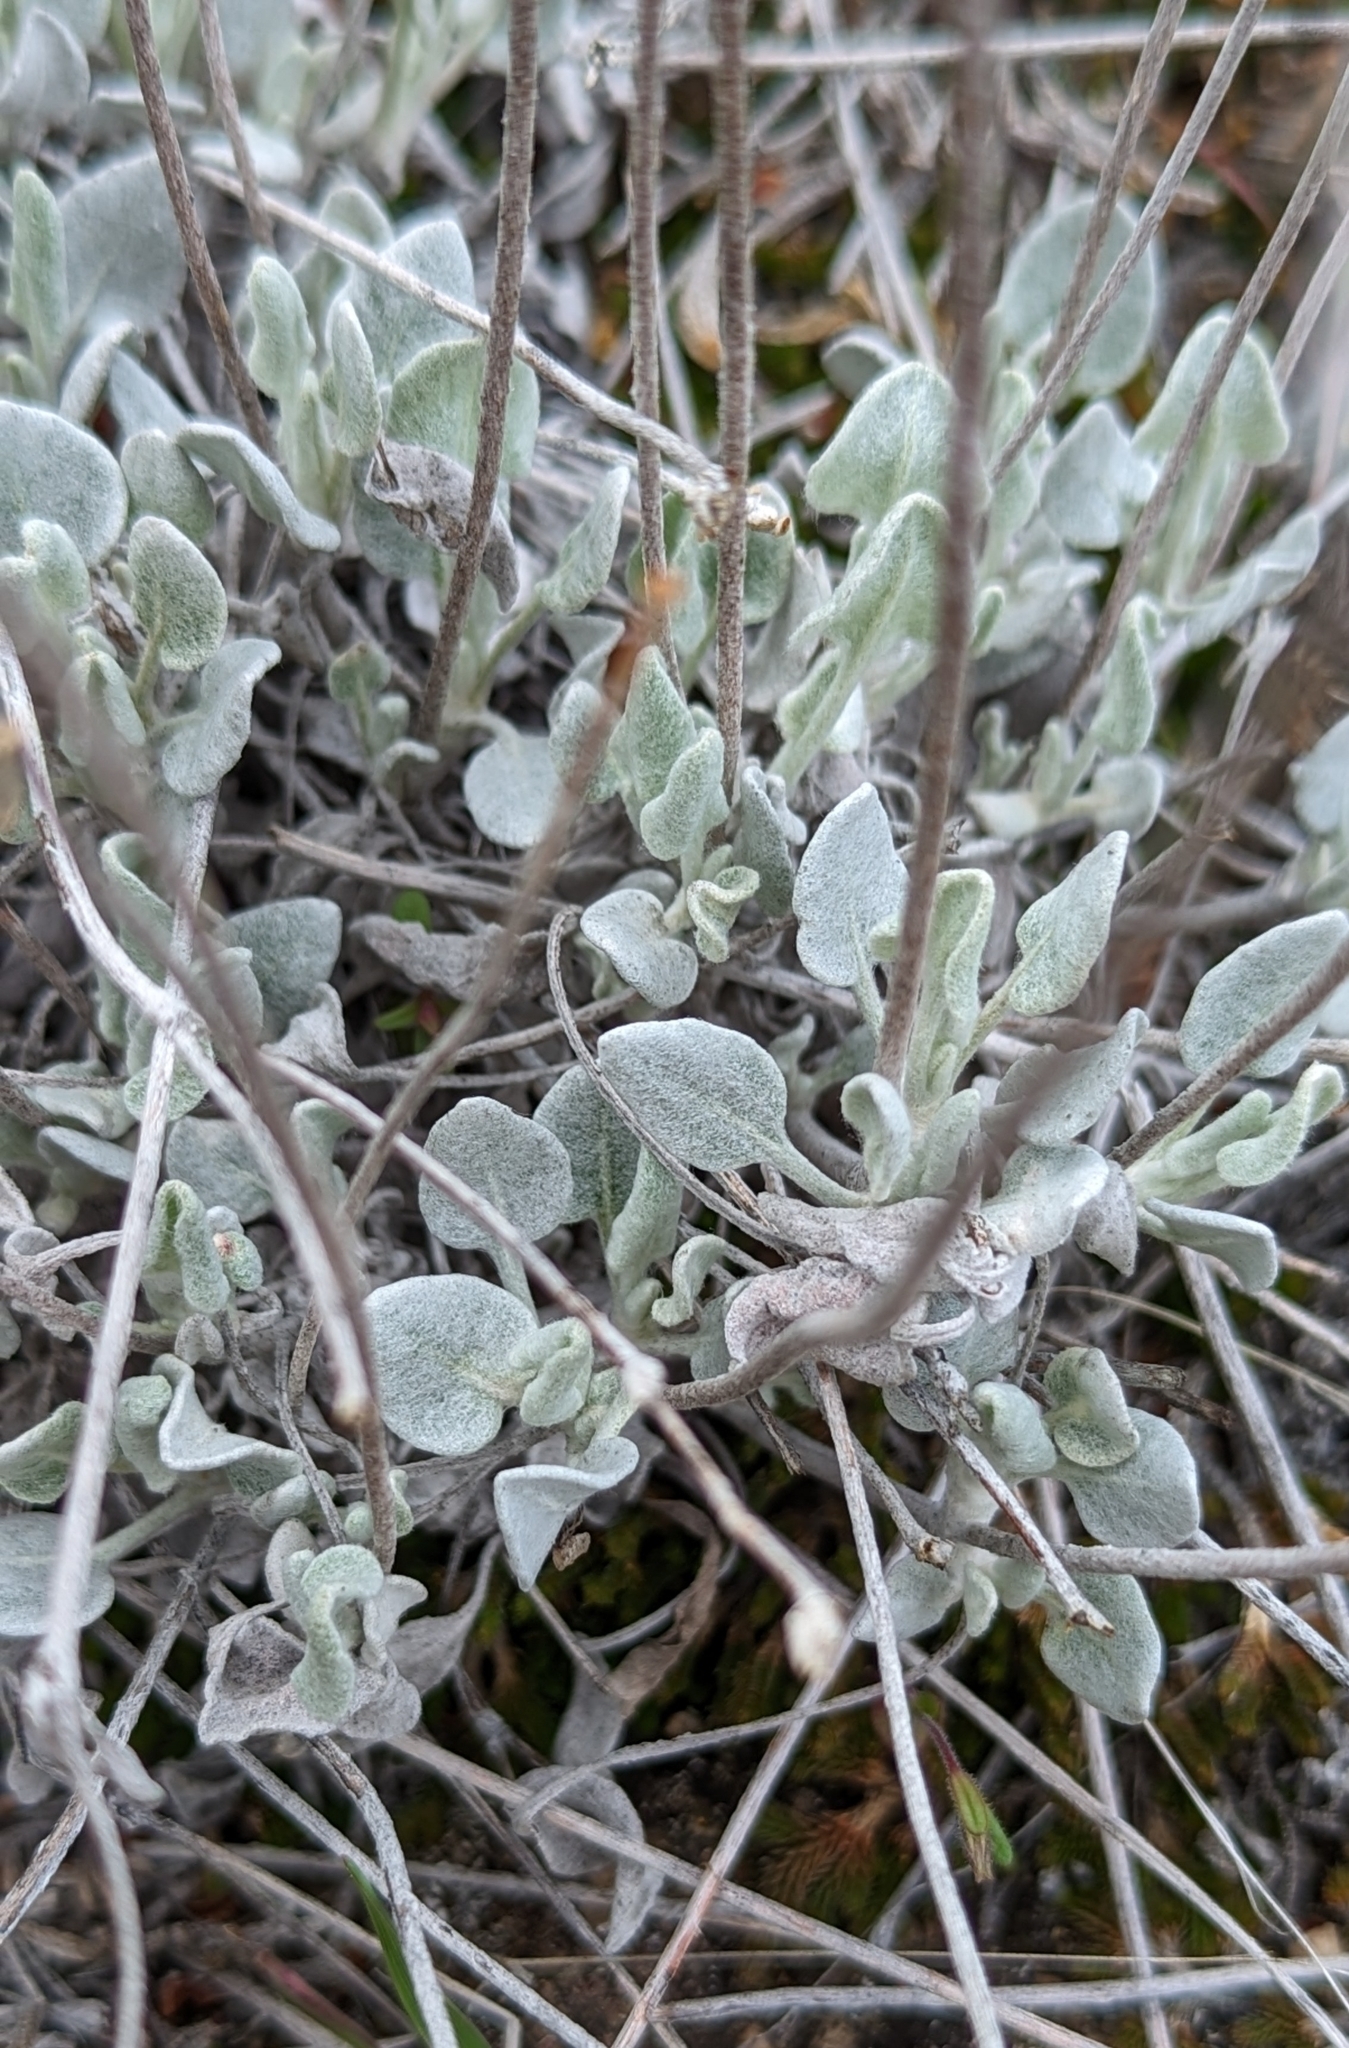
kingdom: Plantae
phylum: Tracheophyta
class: Magnoliopsida
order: Caryophyllales
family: Polygonaceae
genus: Eriogonum
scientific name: Eriogonum niveum
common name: Snow wild buckwheat
